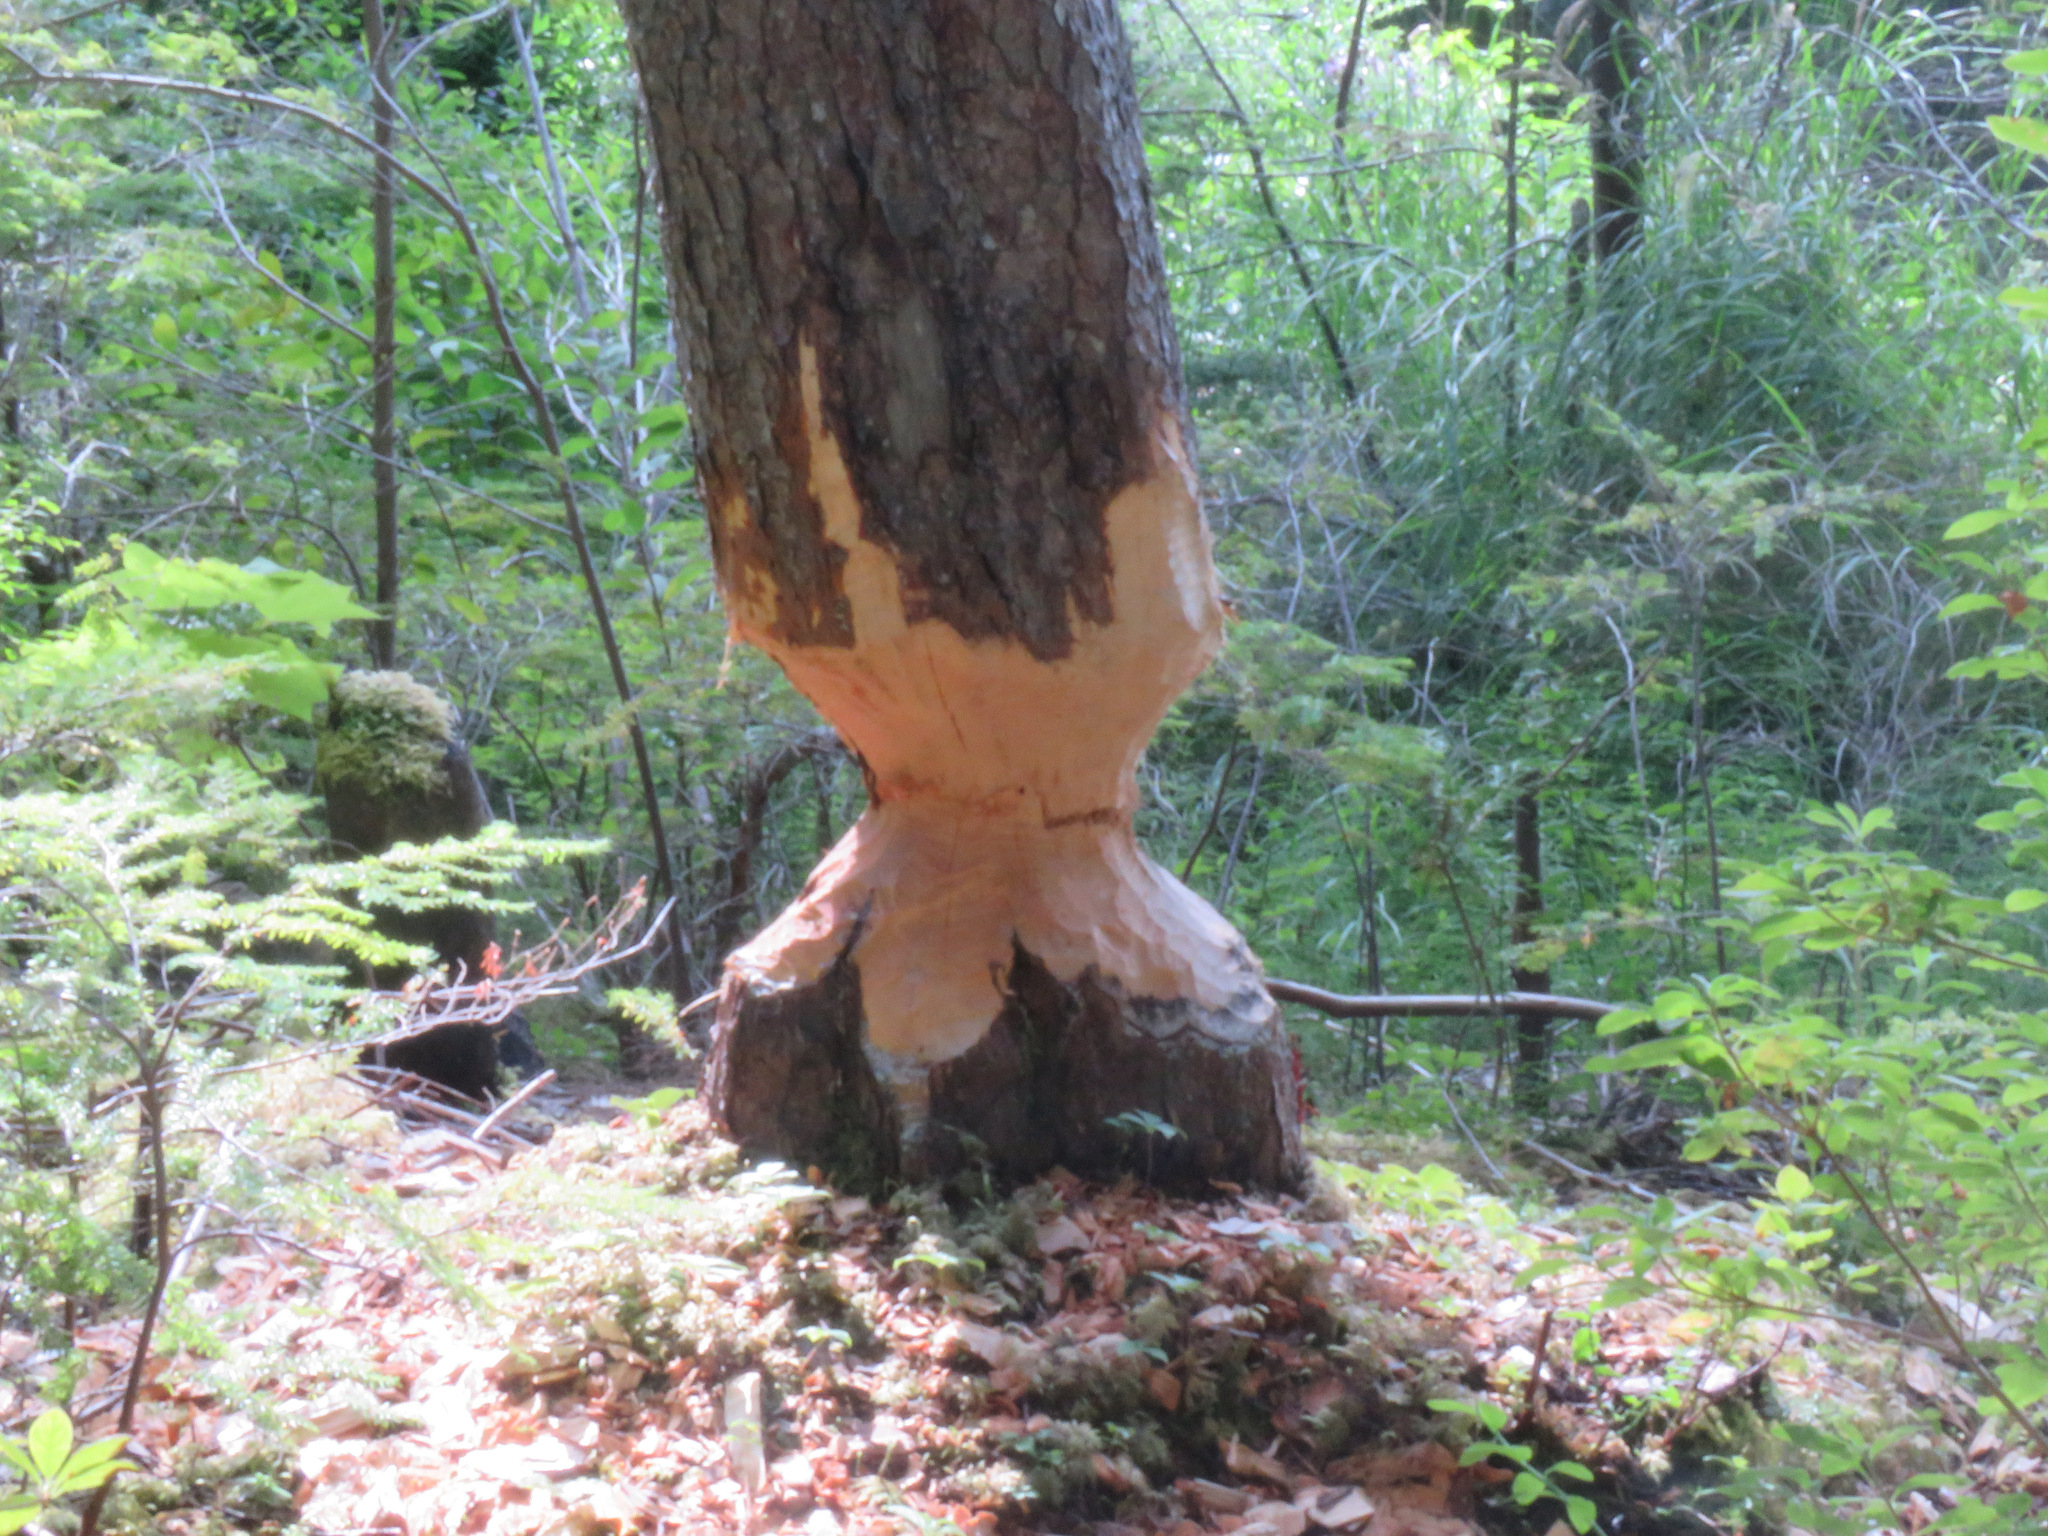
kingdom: Animalia
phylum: Chordata
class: Mammalia
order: Rodentia
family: Castoridae
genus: Castor
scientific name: Castor canadensis
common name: American beaver
